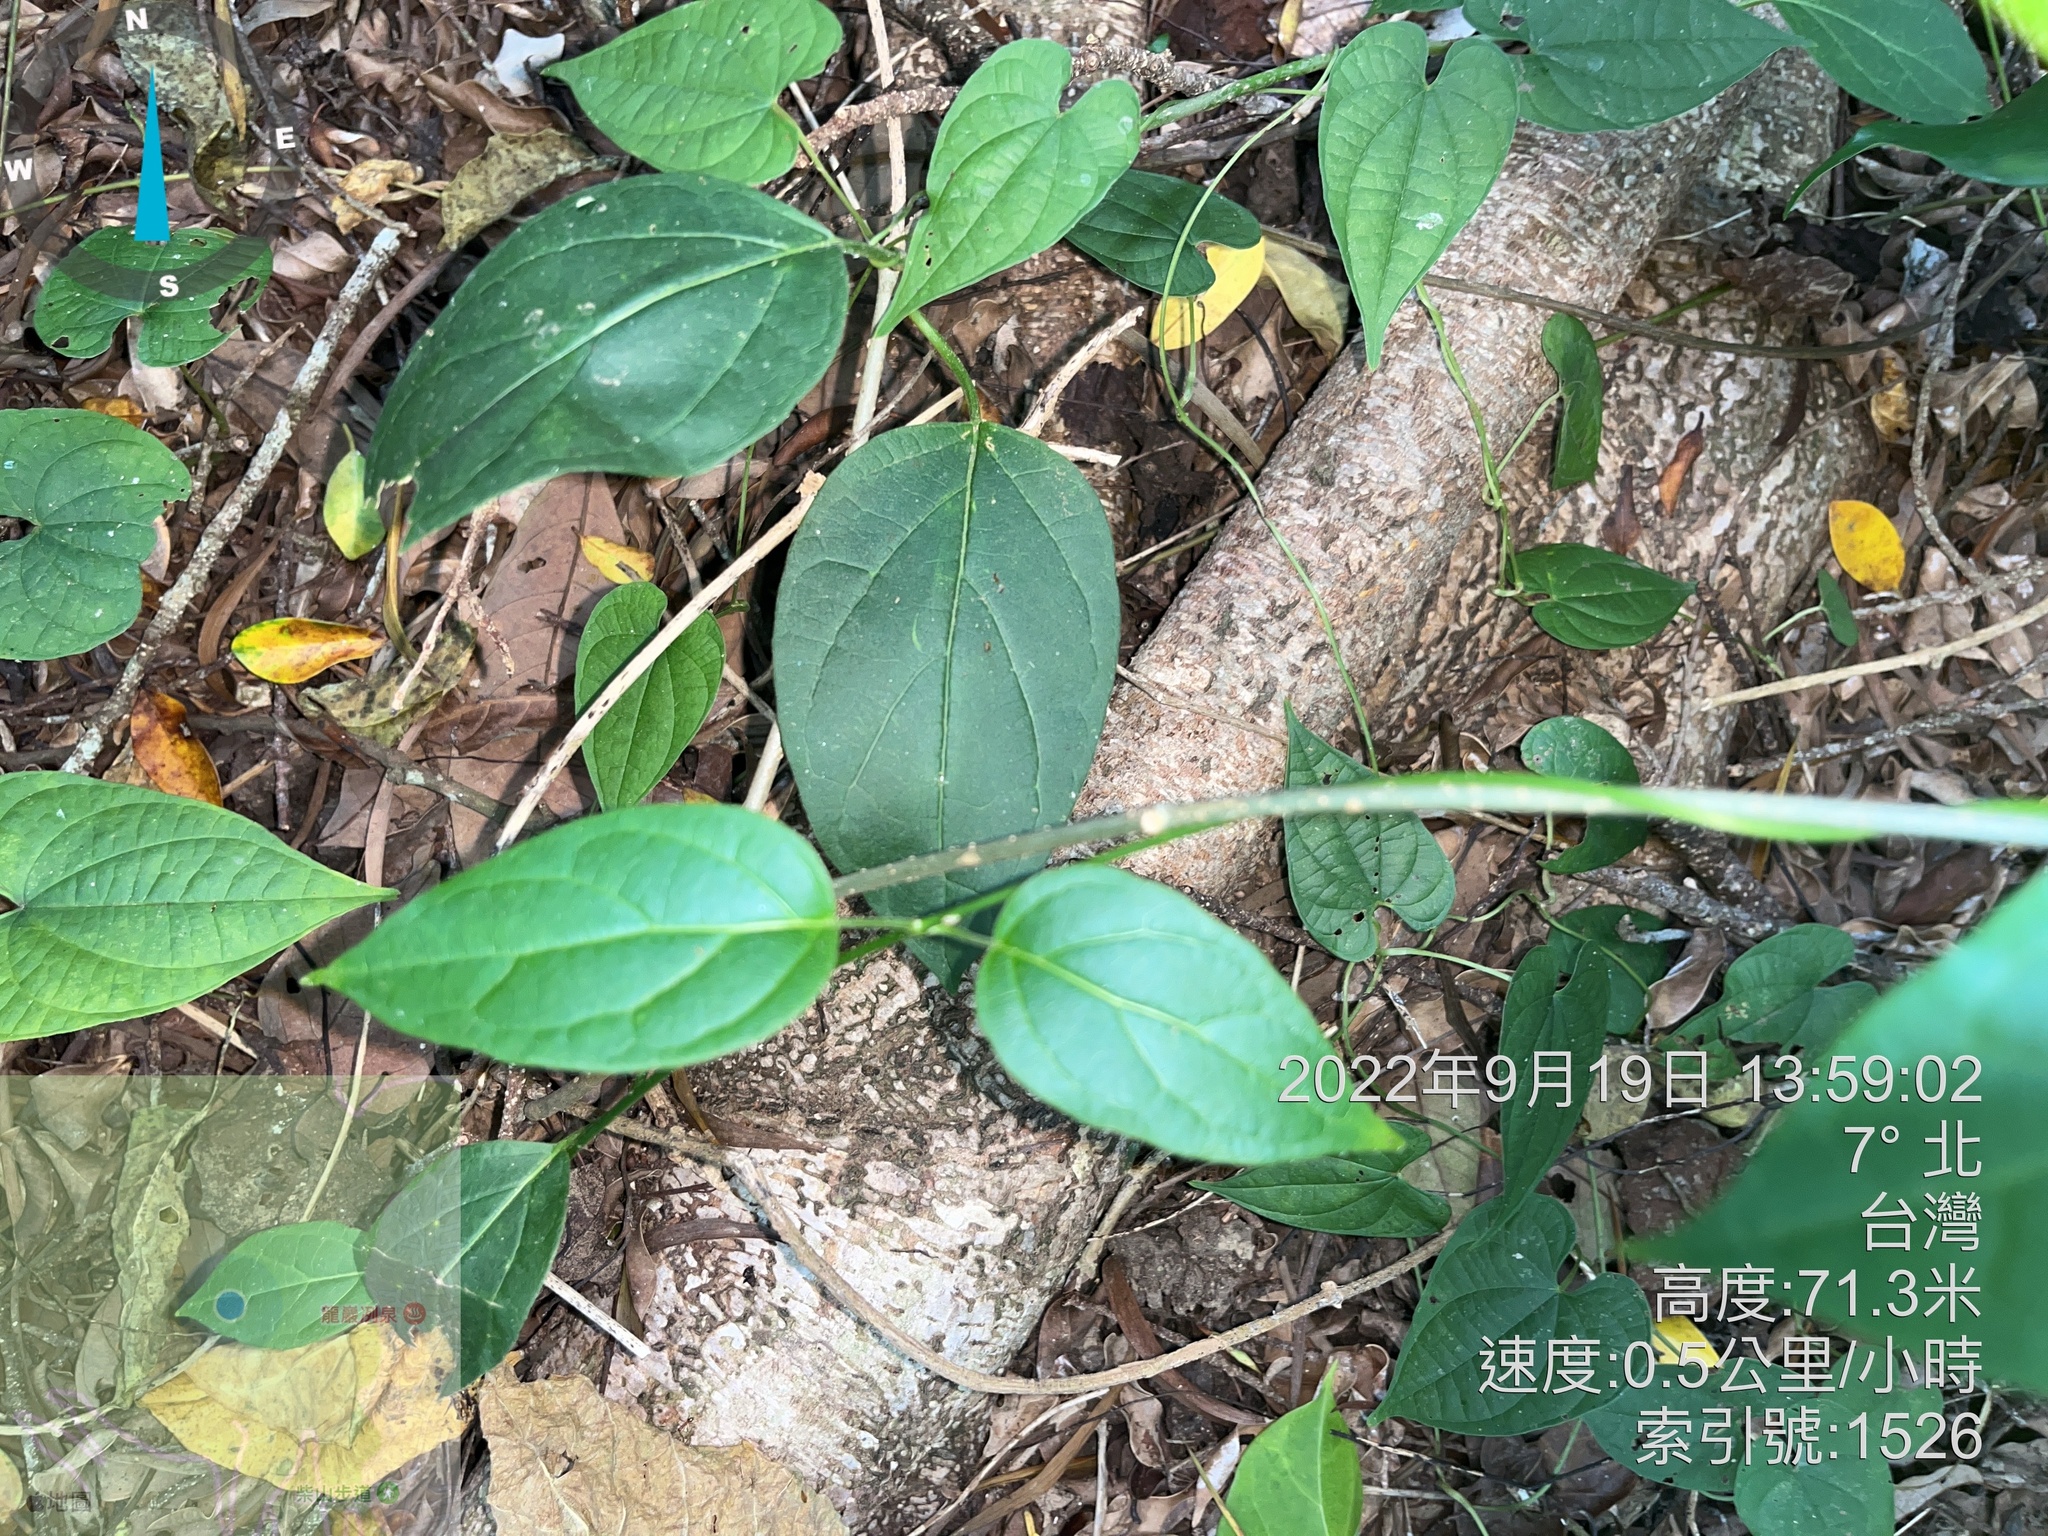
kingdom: Plantae
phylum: Tracheophyta
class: Magnoliopsida
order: Gentianales
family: Apocynaceae
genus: Gymnema
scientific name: Gymnema sylvestre
